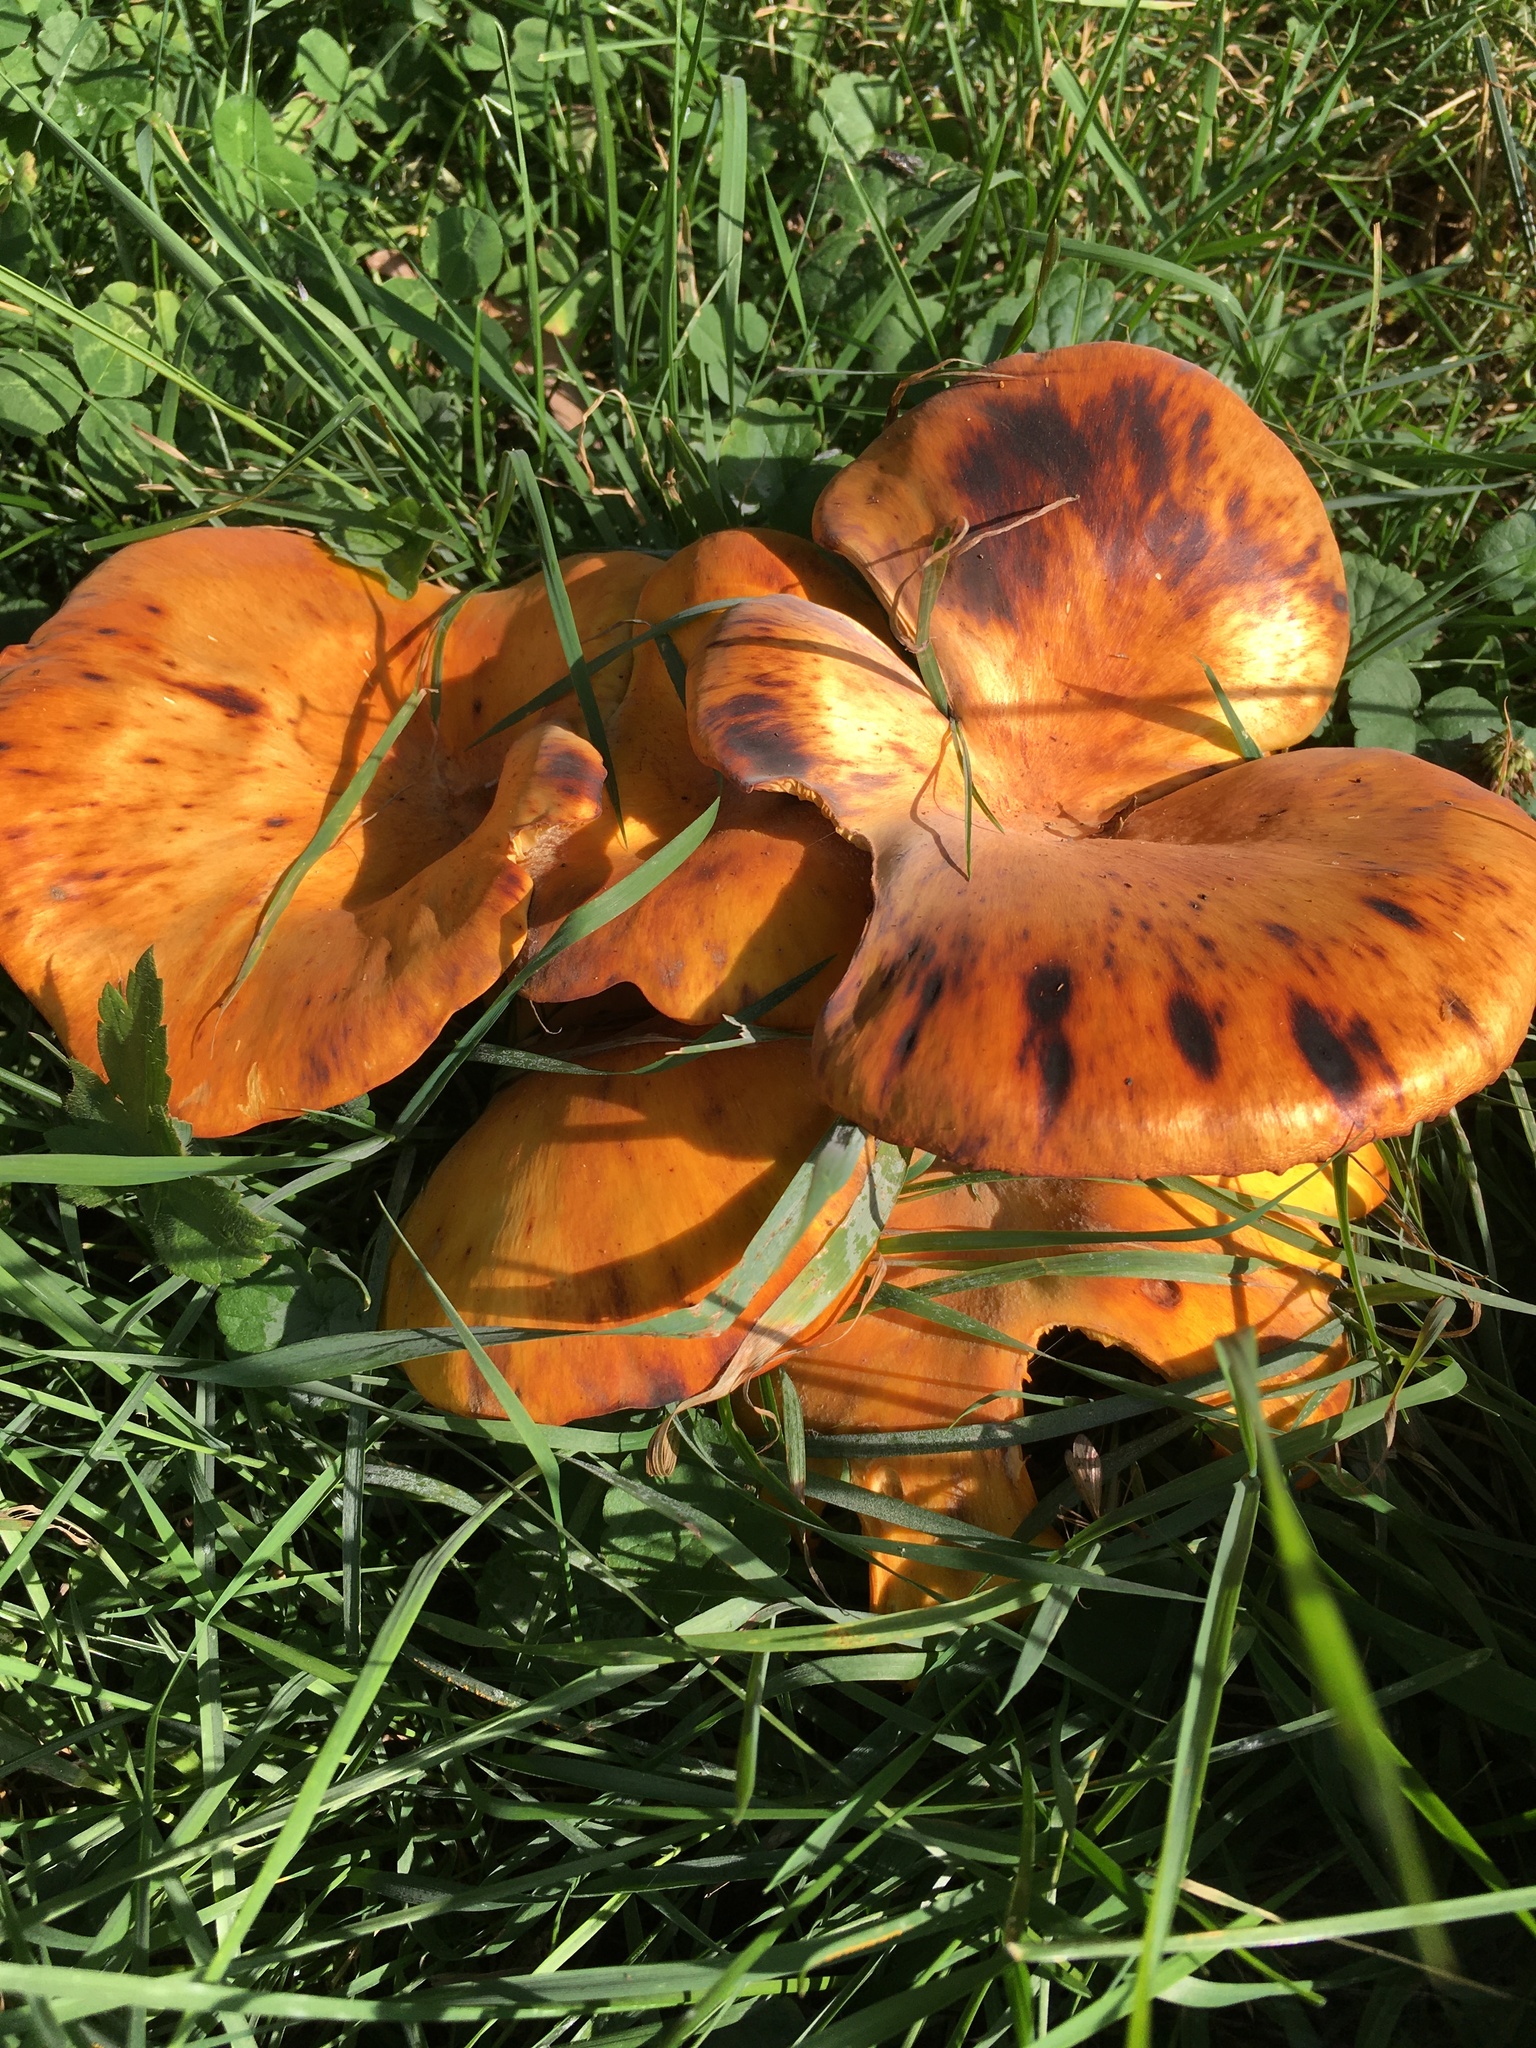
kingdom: Fungi
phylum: Basidiomycota
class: Agaricomycetes
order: Agaricales
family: Omphalotaceae
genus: Omphalotus
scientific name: Omphalotus illudens
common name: Jack o lantern
